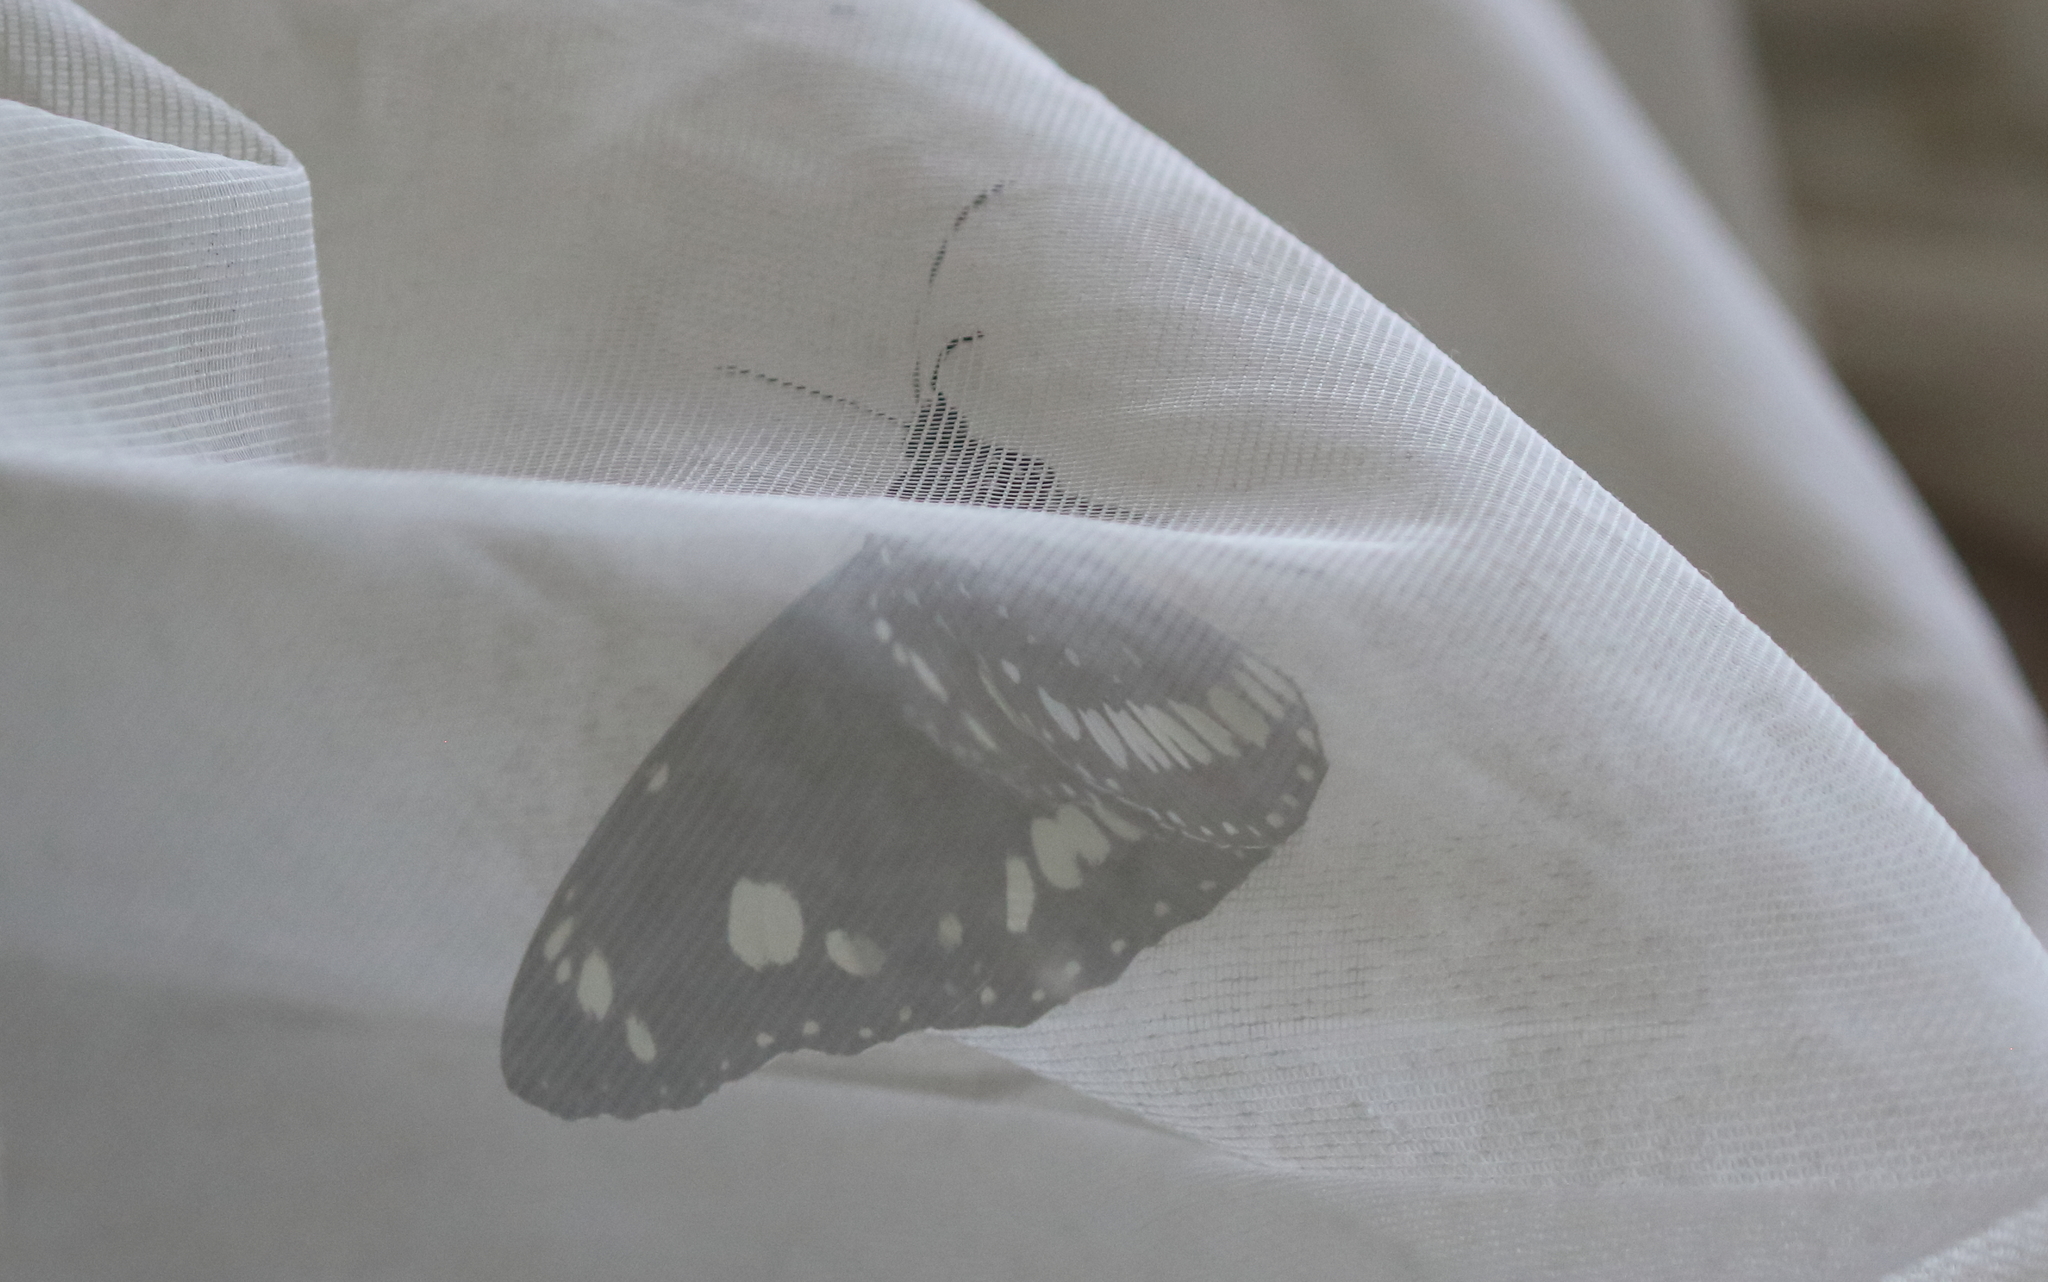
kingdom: Animalia
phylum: Arthropoda
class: Insecta
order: Lepidoptera
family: Nymphalidae
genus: Euploea
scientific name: Euploea core
